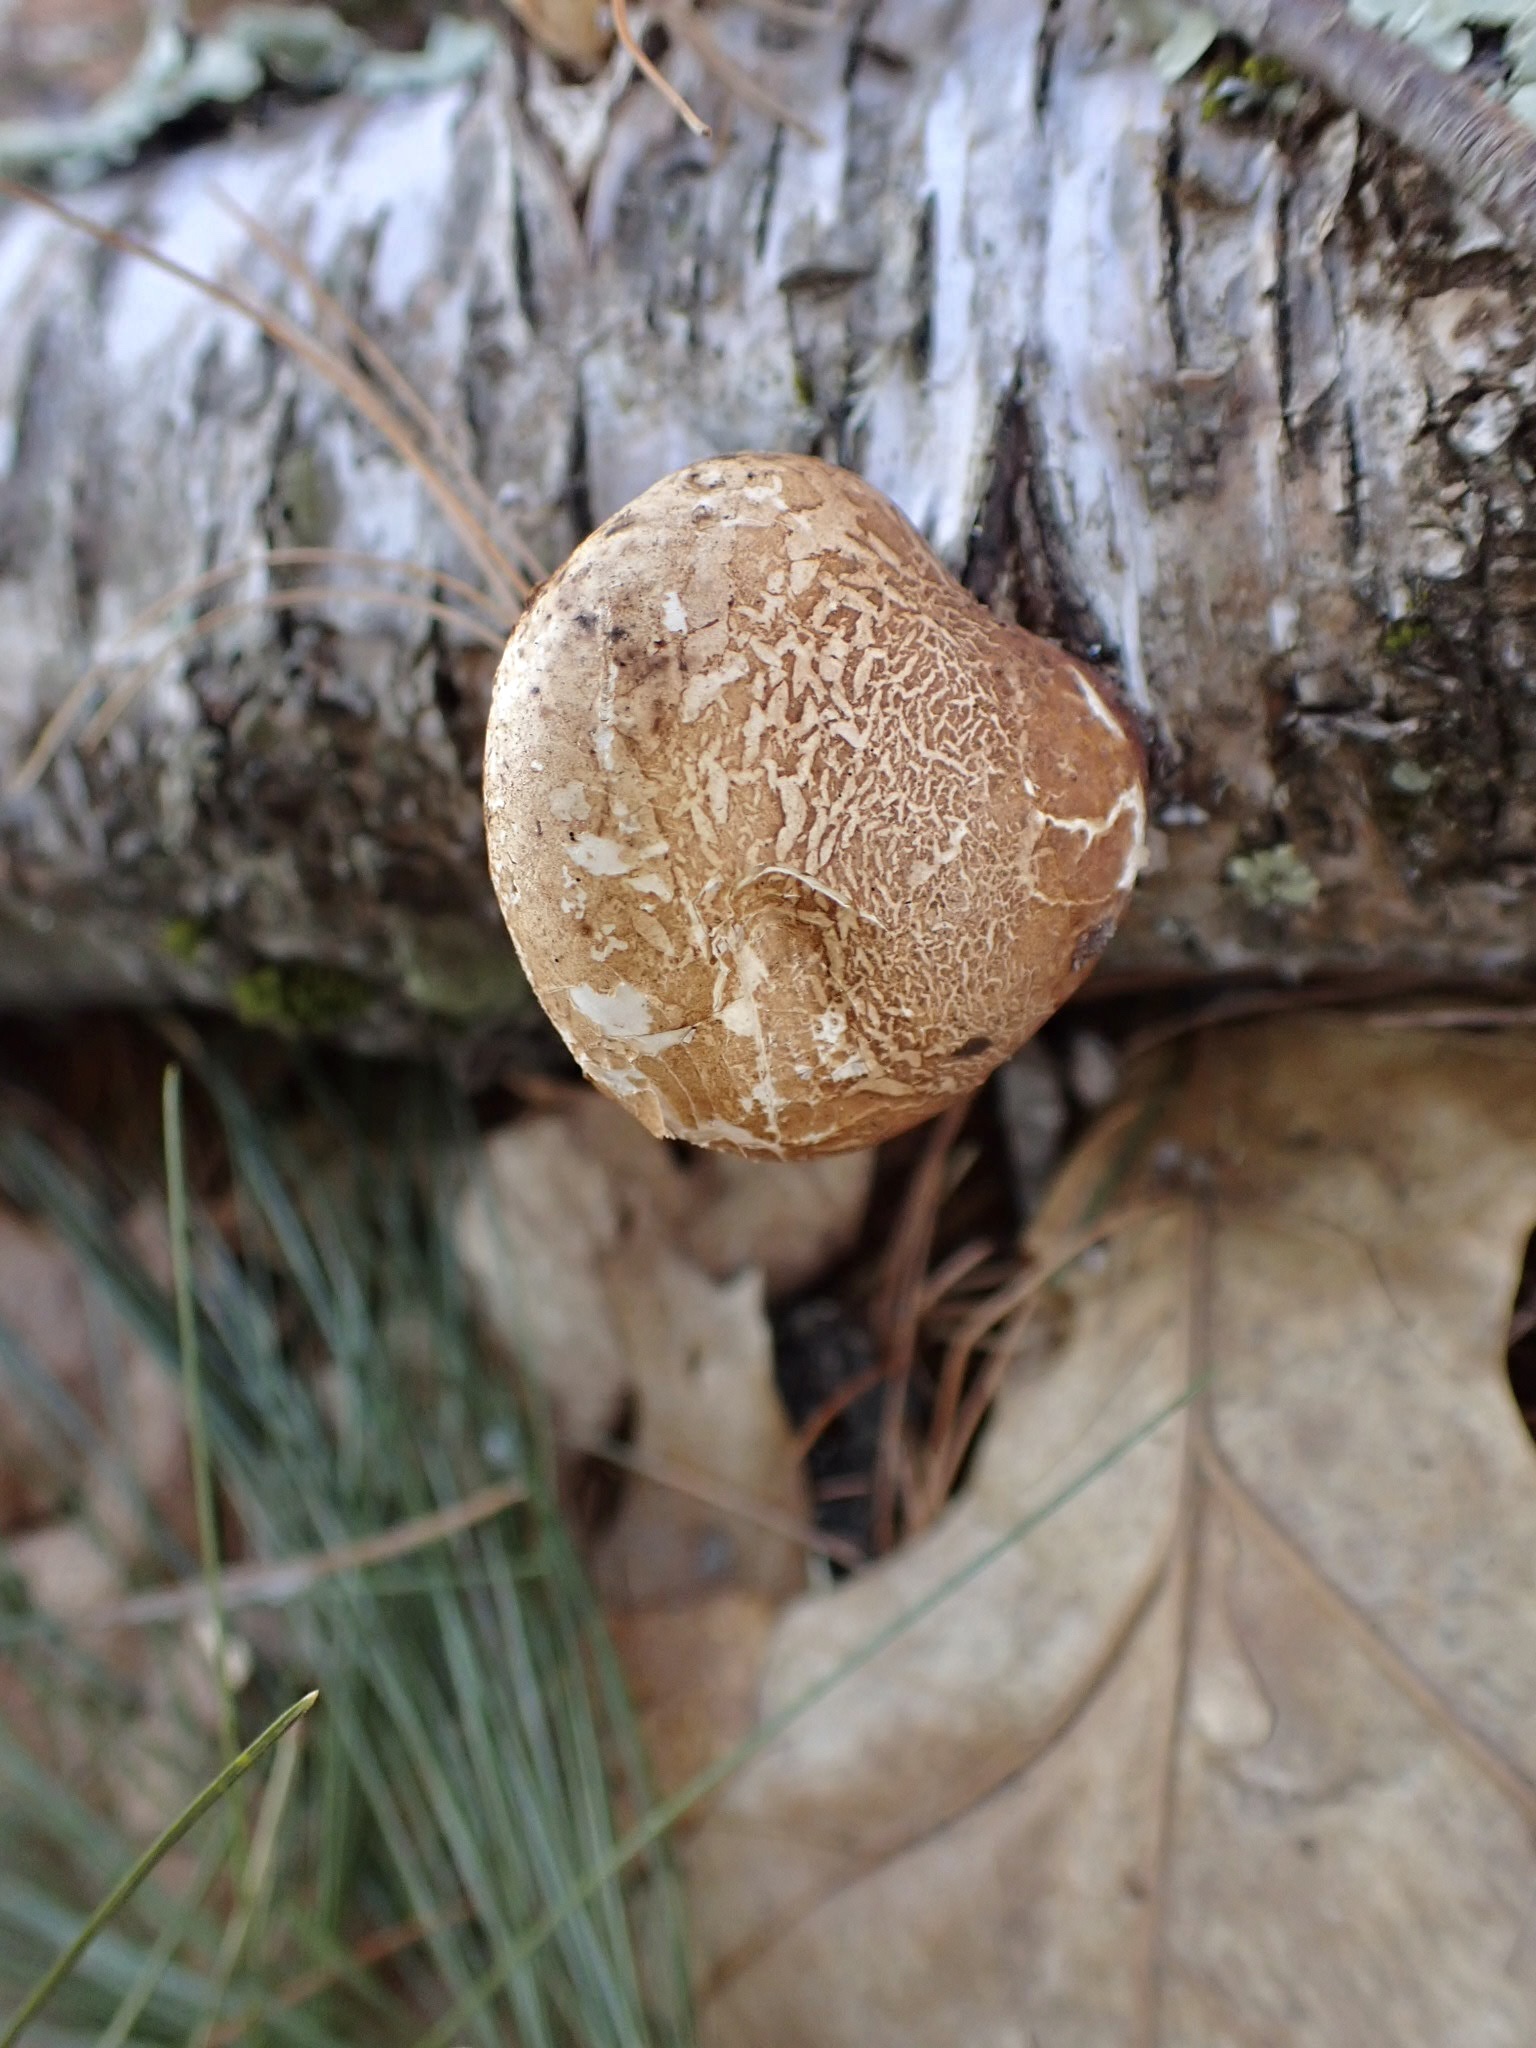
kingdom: Fungi
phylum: Basidiomycota
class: Agaricomycetes
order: Polyporales
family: Fomitopsidaceae
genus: Fomitopsis
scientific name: Fomitopsis betulina
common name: Birch polypore
